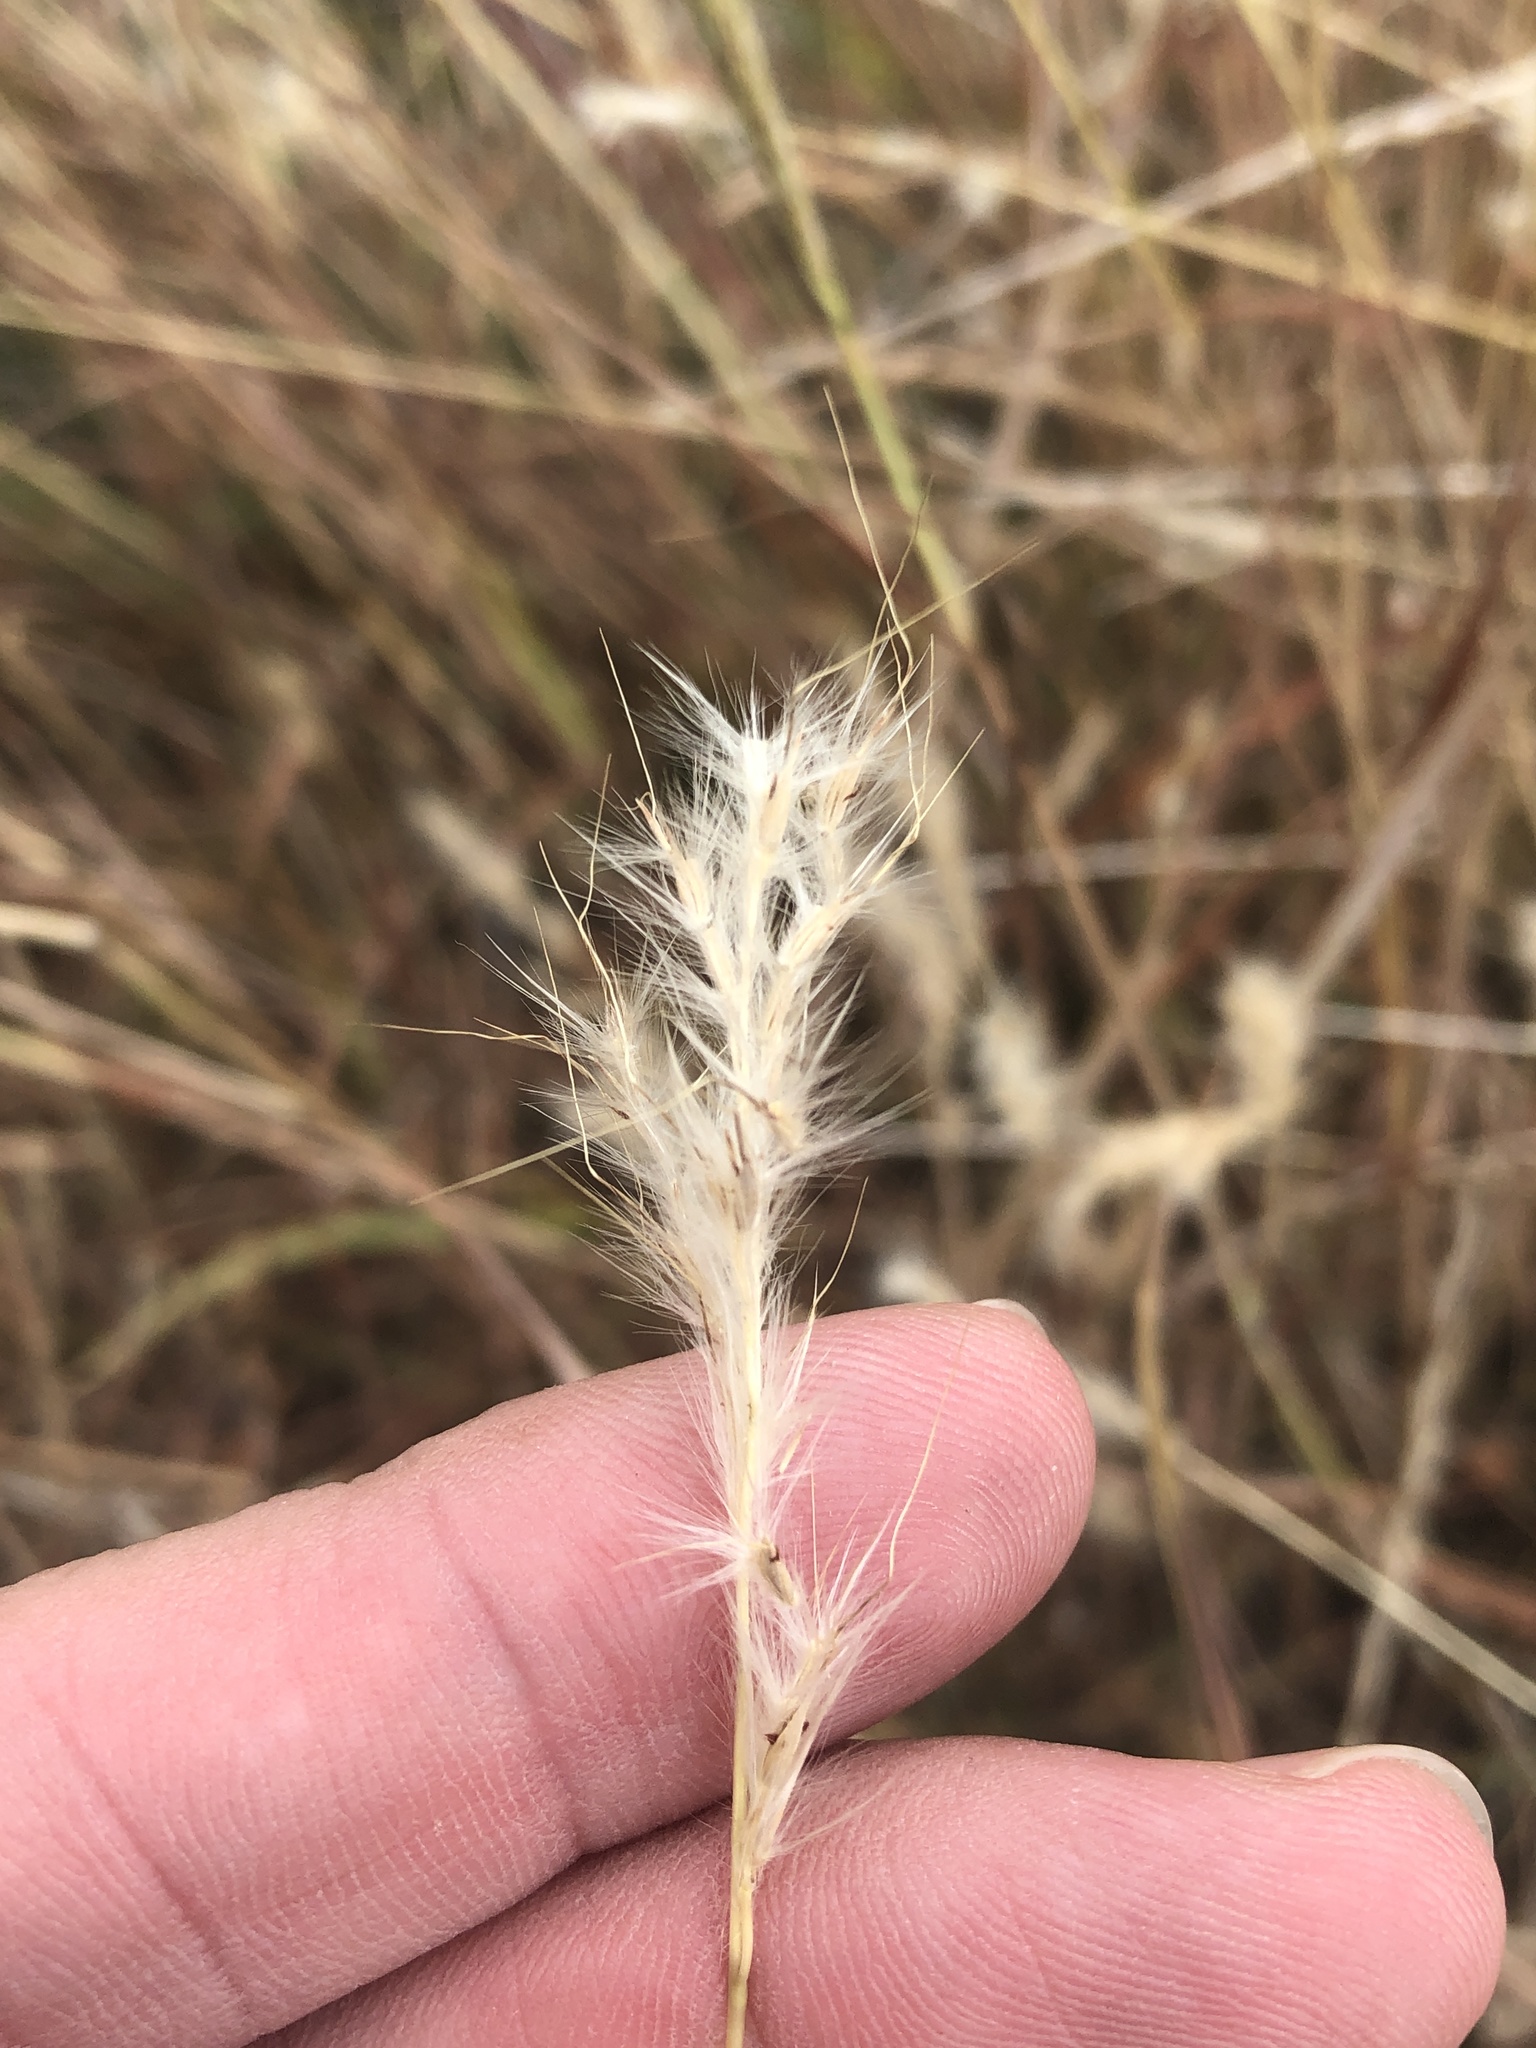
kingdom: Plantae
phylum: Tracheophyta
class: Liliopsida
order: Poales
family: Poaceae
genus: Bothriochloa
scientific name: Bothriochloa torreyana
